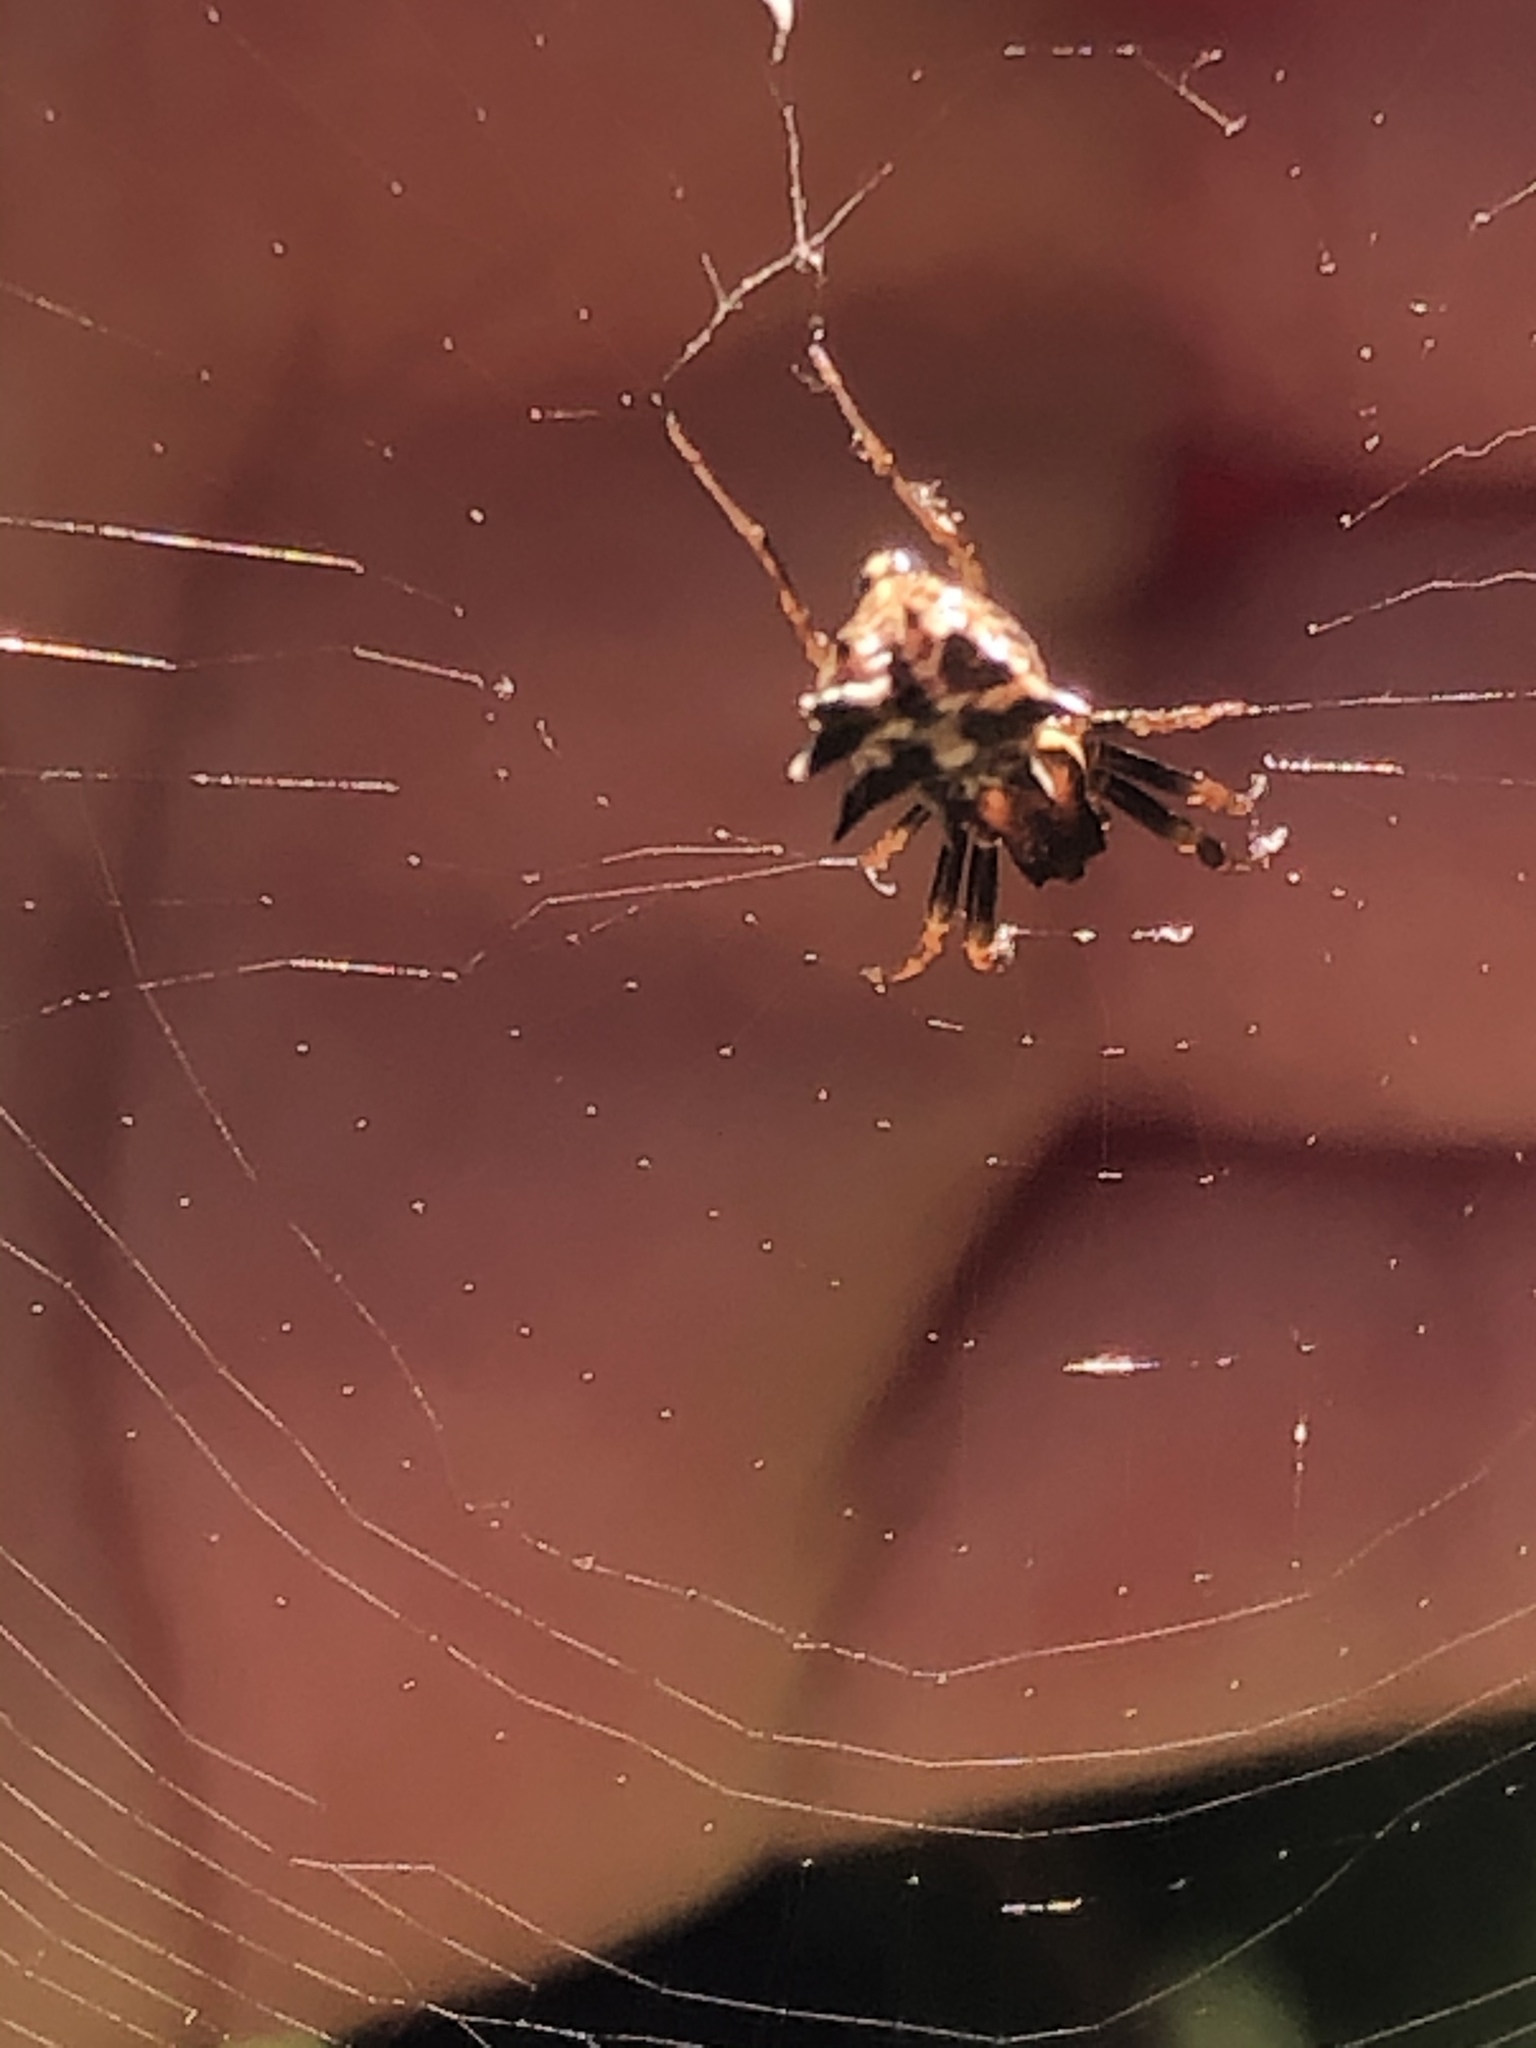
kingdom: Animalia
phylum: Arthropoda
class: Arachnida
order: Araneae
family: Araneidae
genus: Micrathena
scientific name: Micrathena gracilis
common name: Orb weavers
